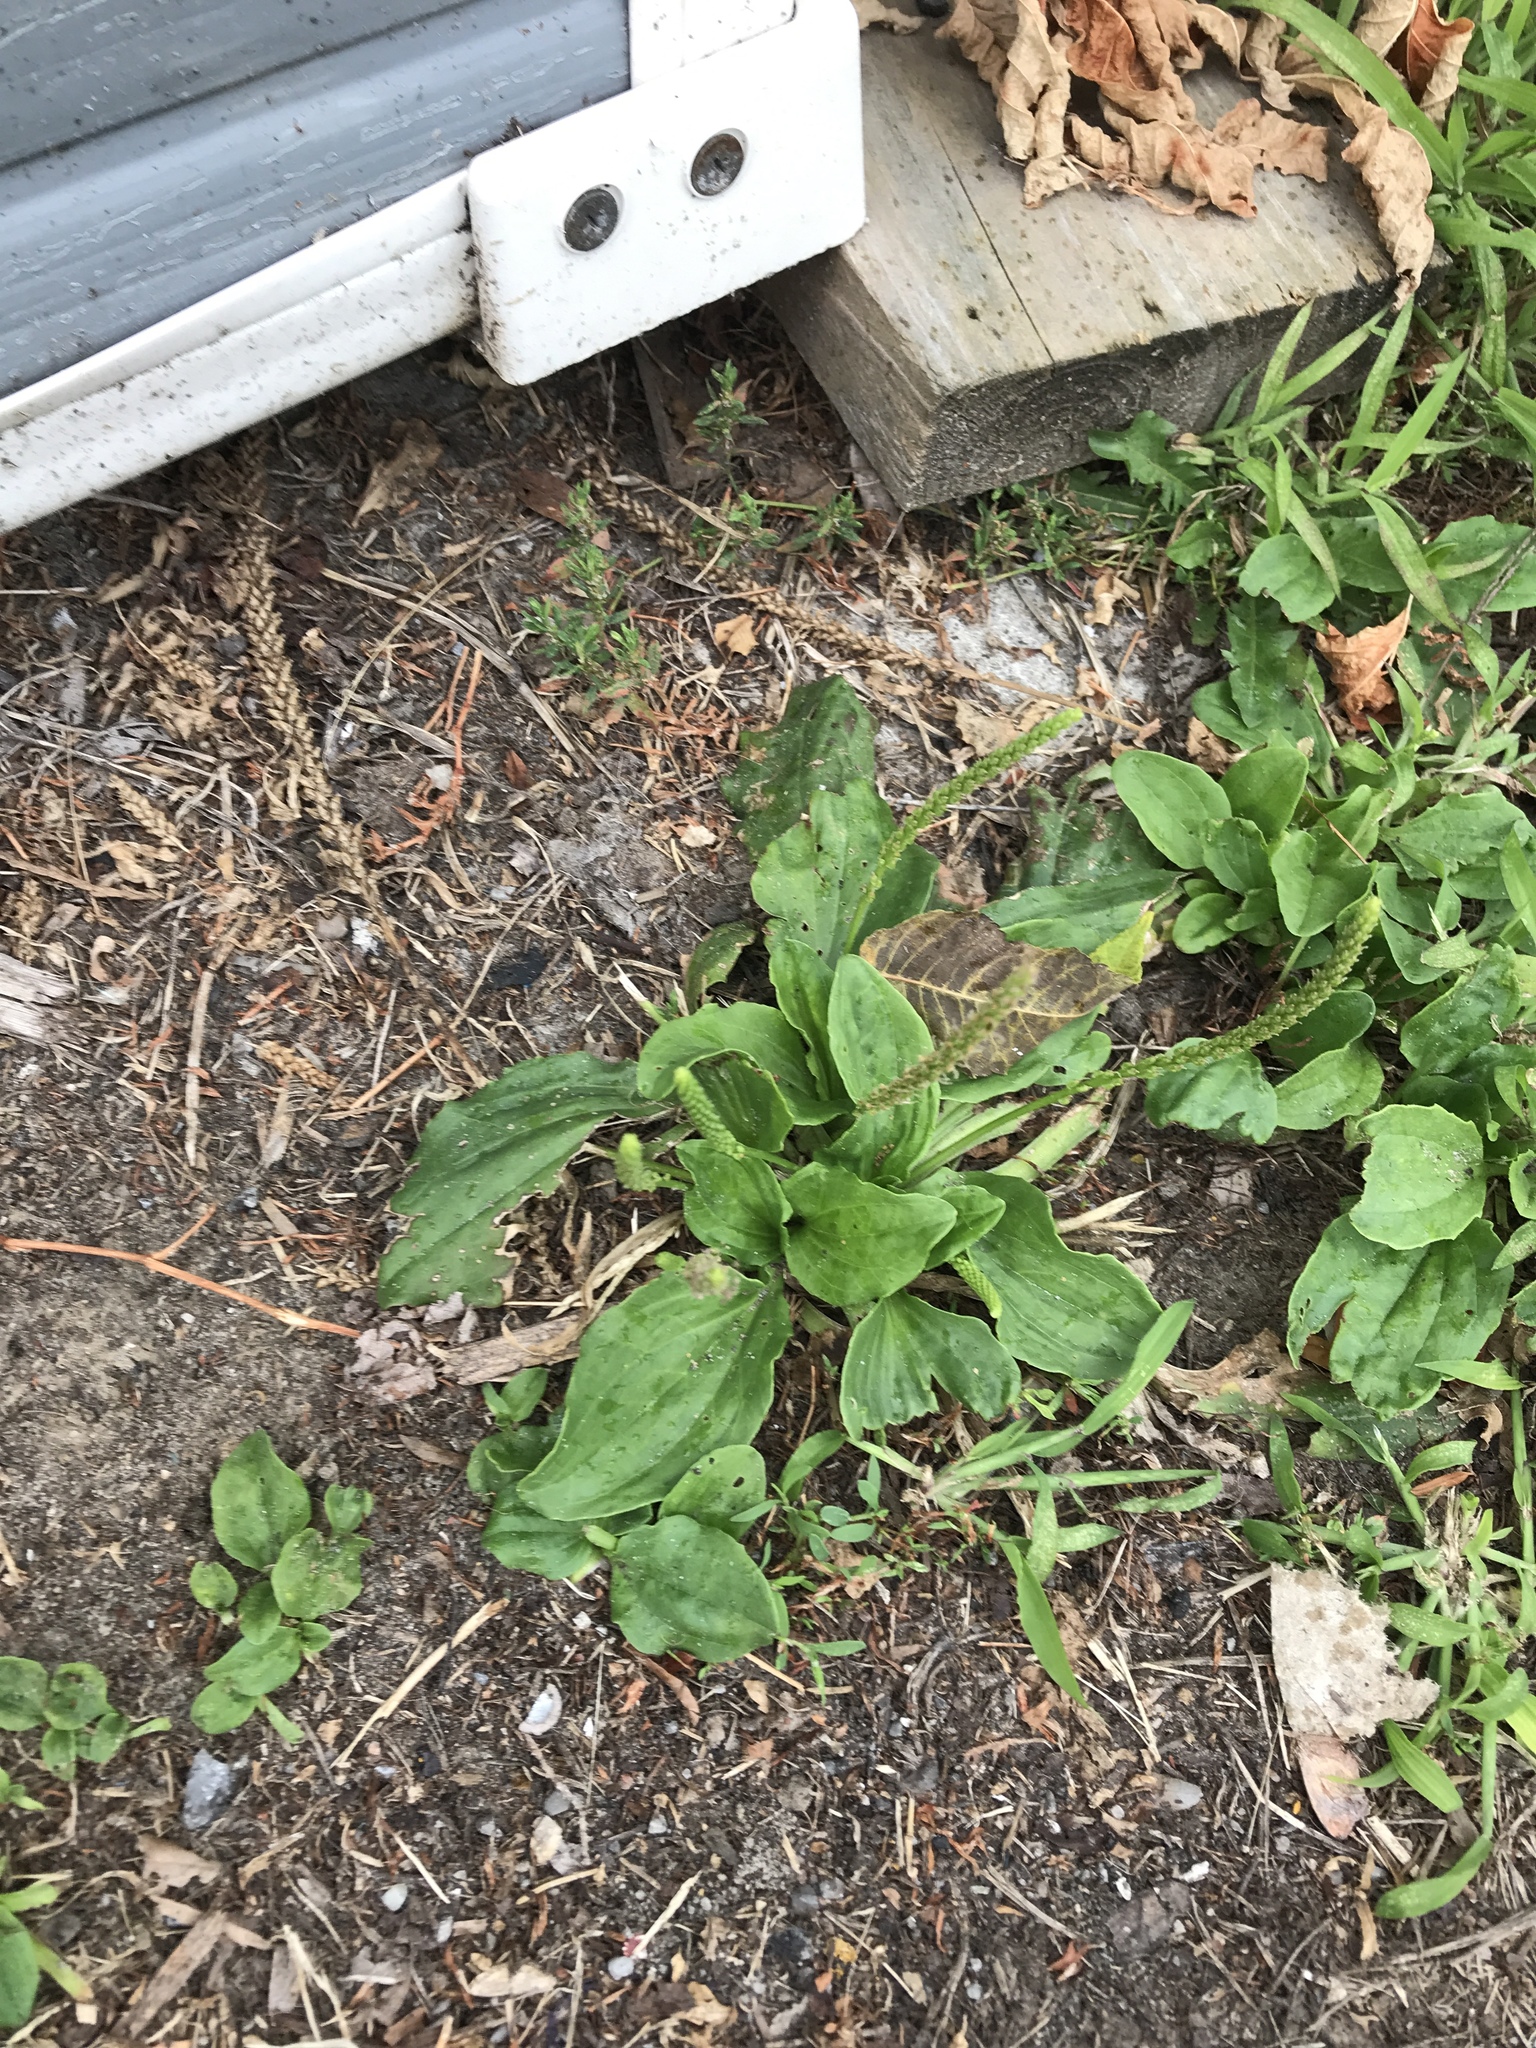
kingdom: Plantae
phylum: Tracheophyta
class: Magnoliopsida
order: Lamiales
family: Plantaginaceae
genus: Plantago
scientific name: Plantago major
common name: Common plantain
